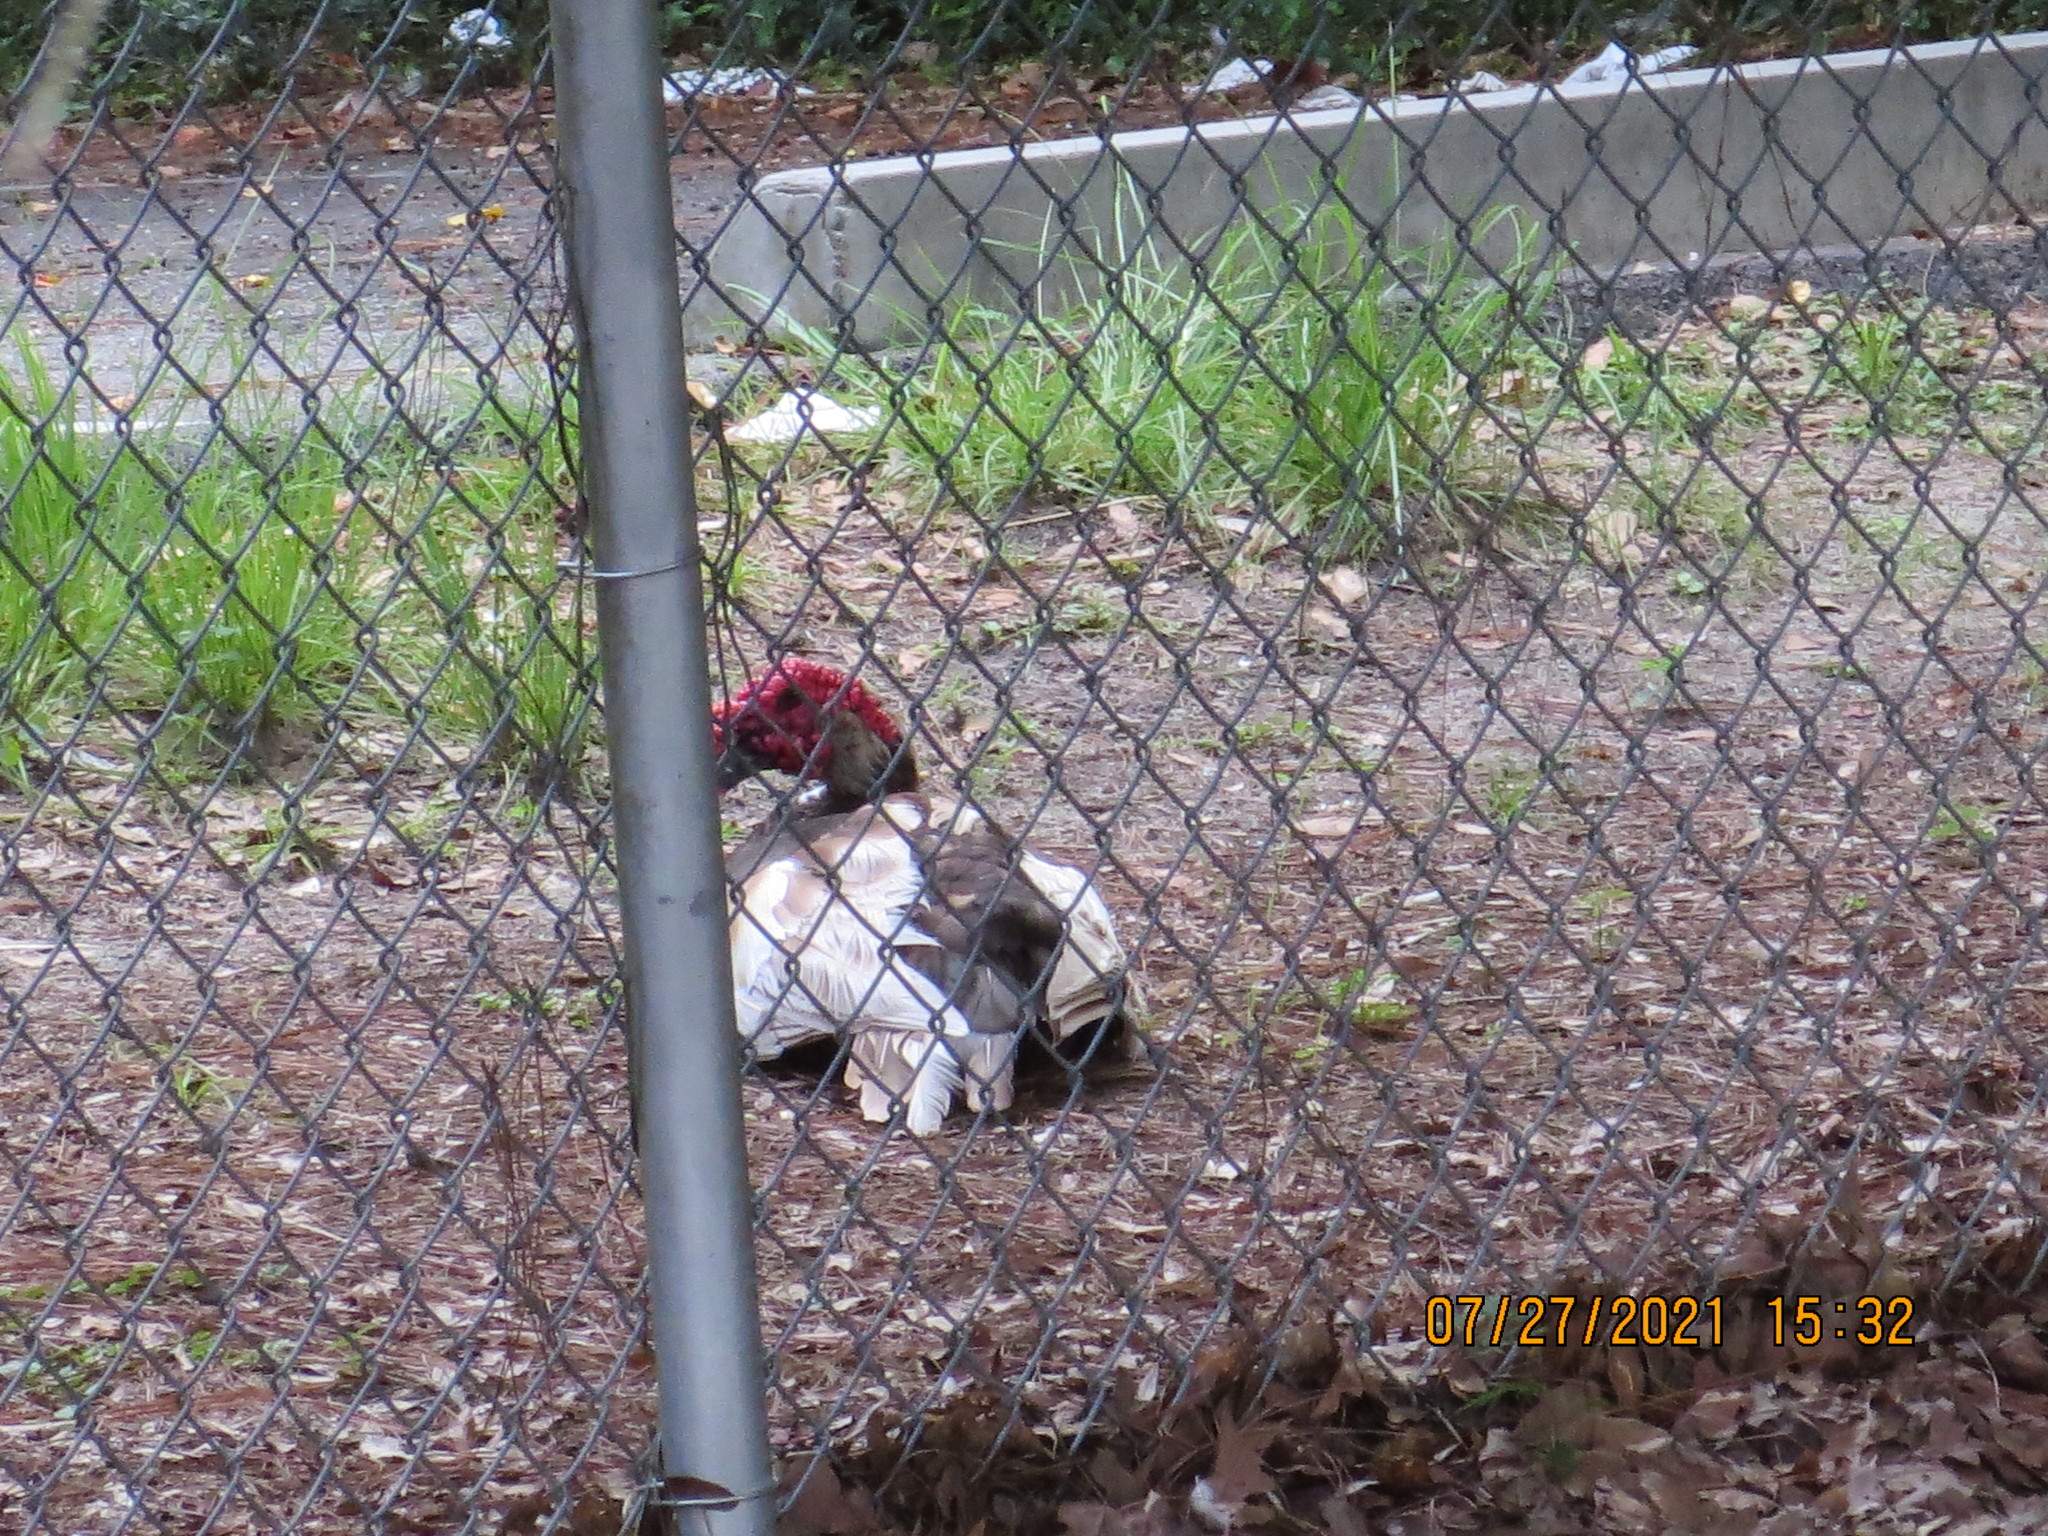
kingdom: Animalia
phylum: Chordata
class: Aves
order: Anseriformes
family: Anatidae
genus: Cairina
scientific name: Cairina moschata
